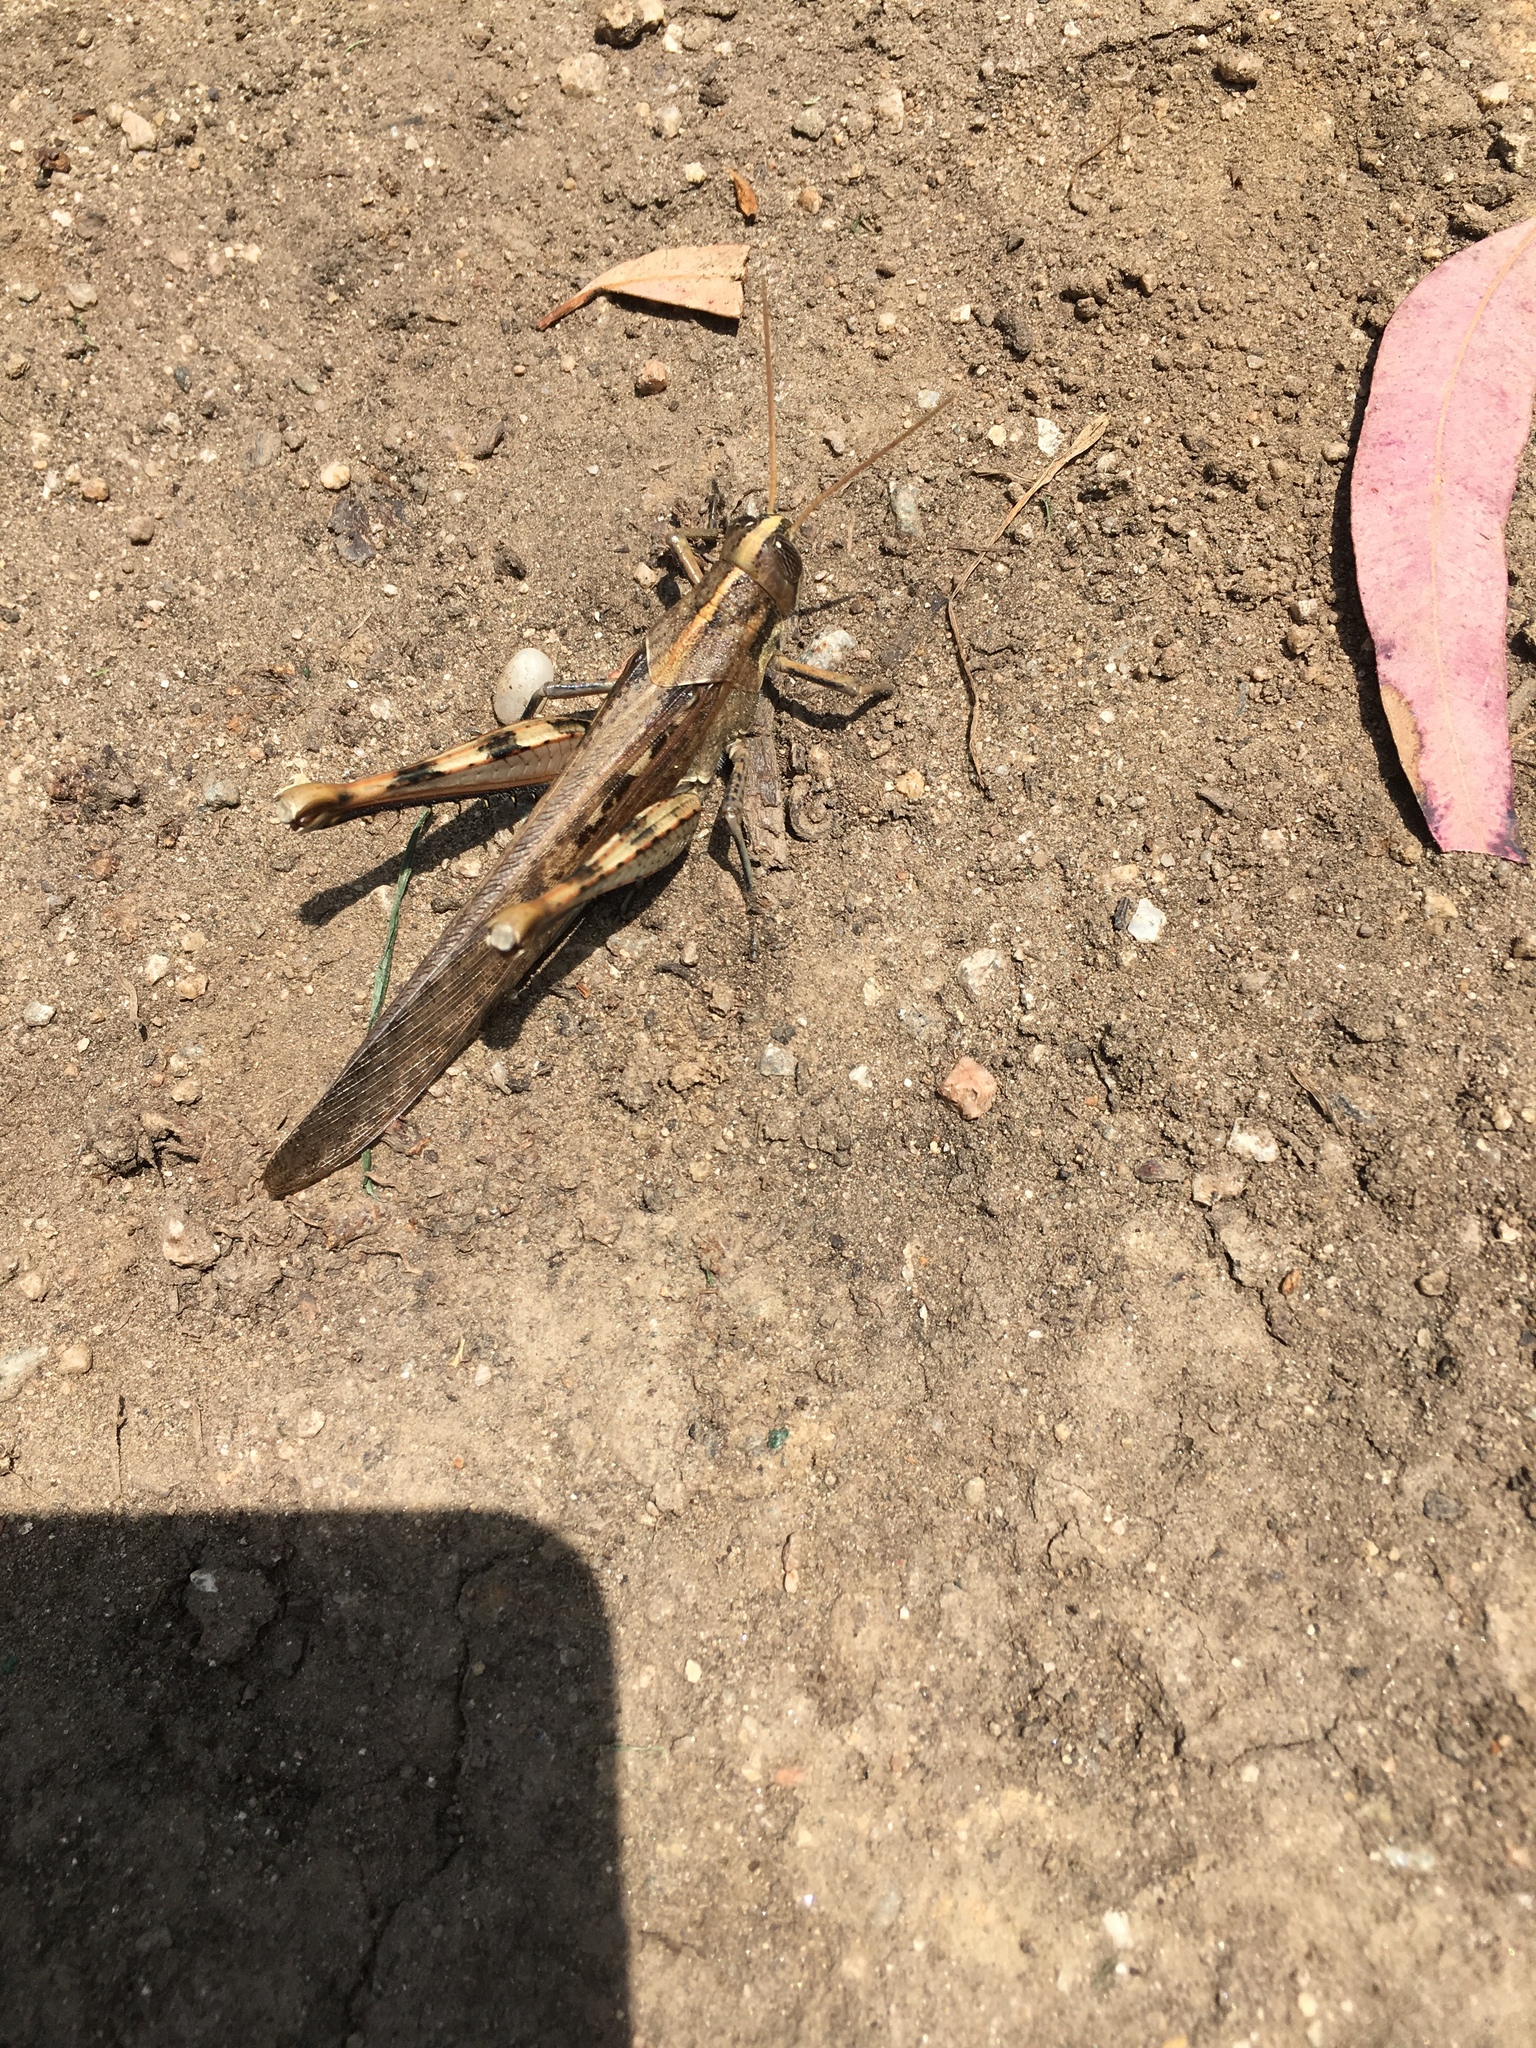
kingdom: Animalia
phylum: Arthropoda
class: Insecta
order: Orthoptera
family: Acrididae
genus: Schistocerca
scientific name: Schistocerca nitens
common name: Vagrant grasshopper
